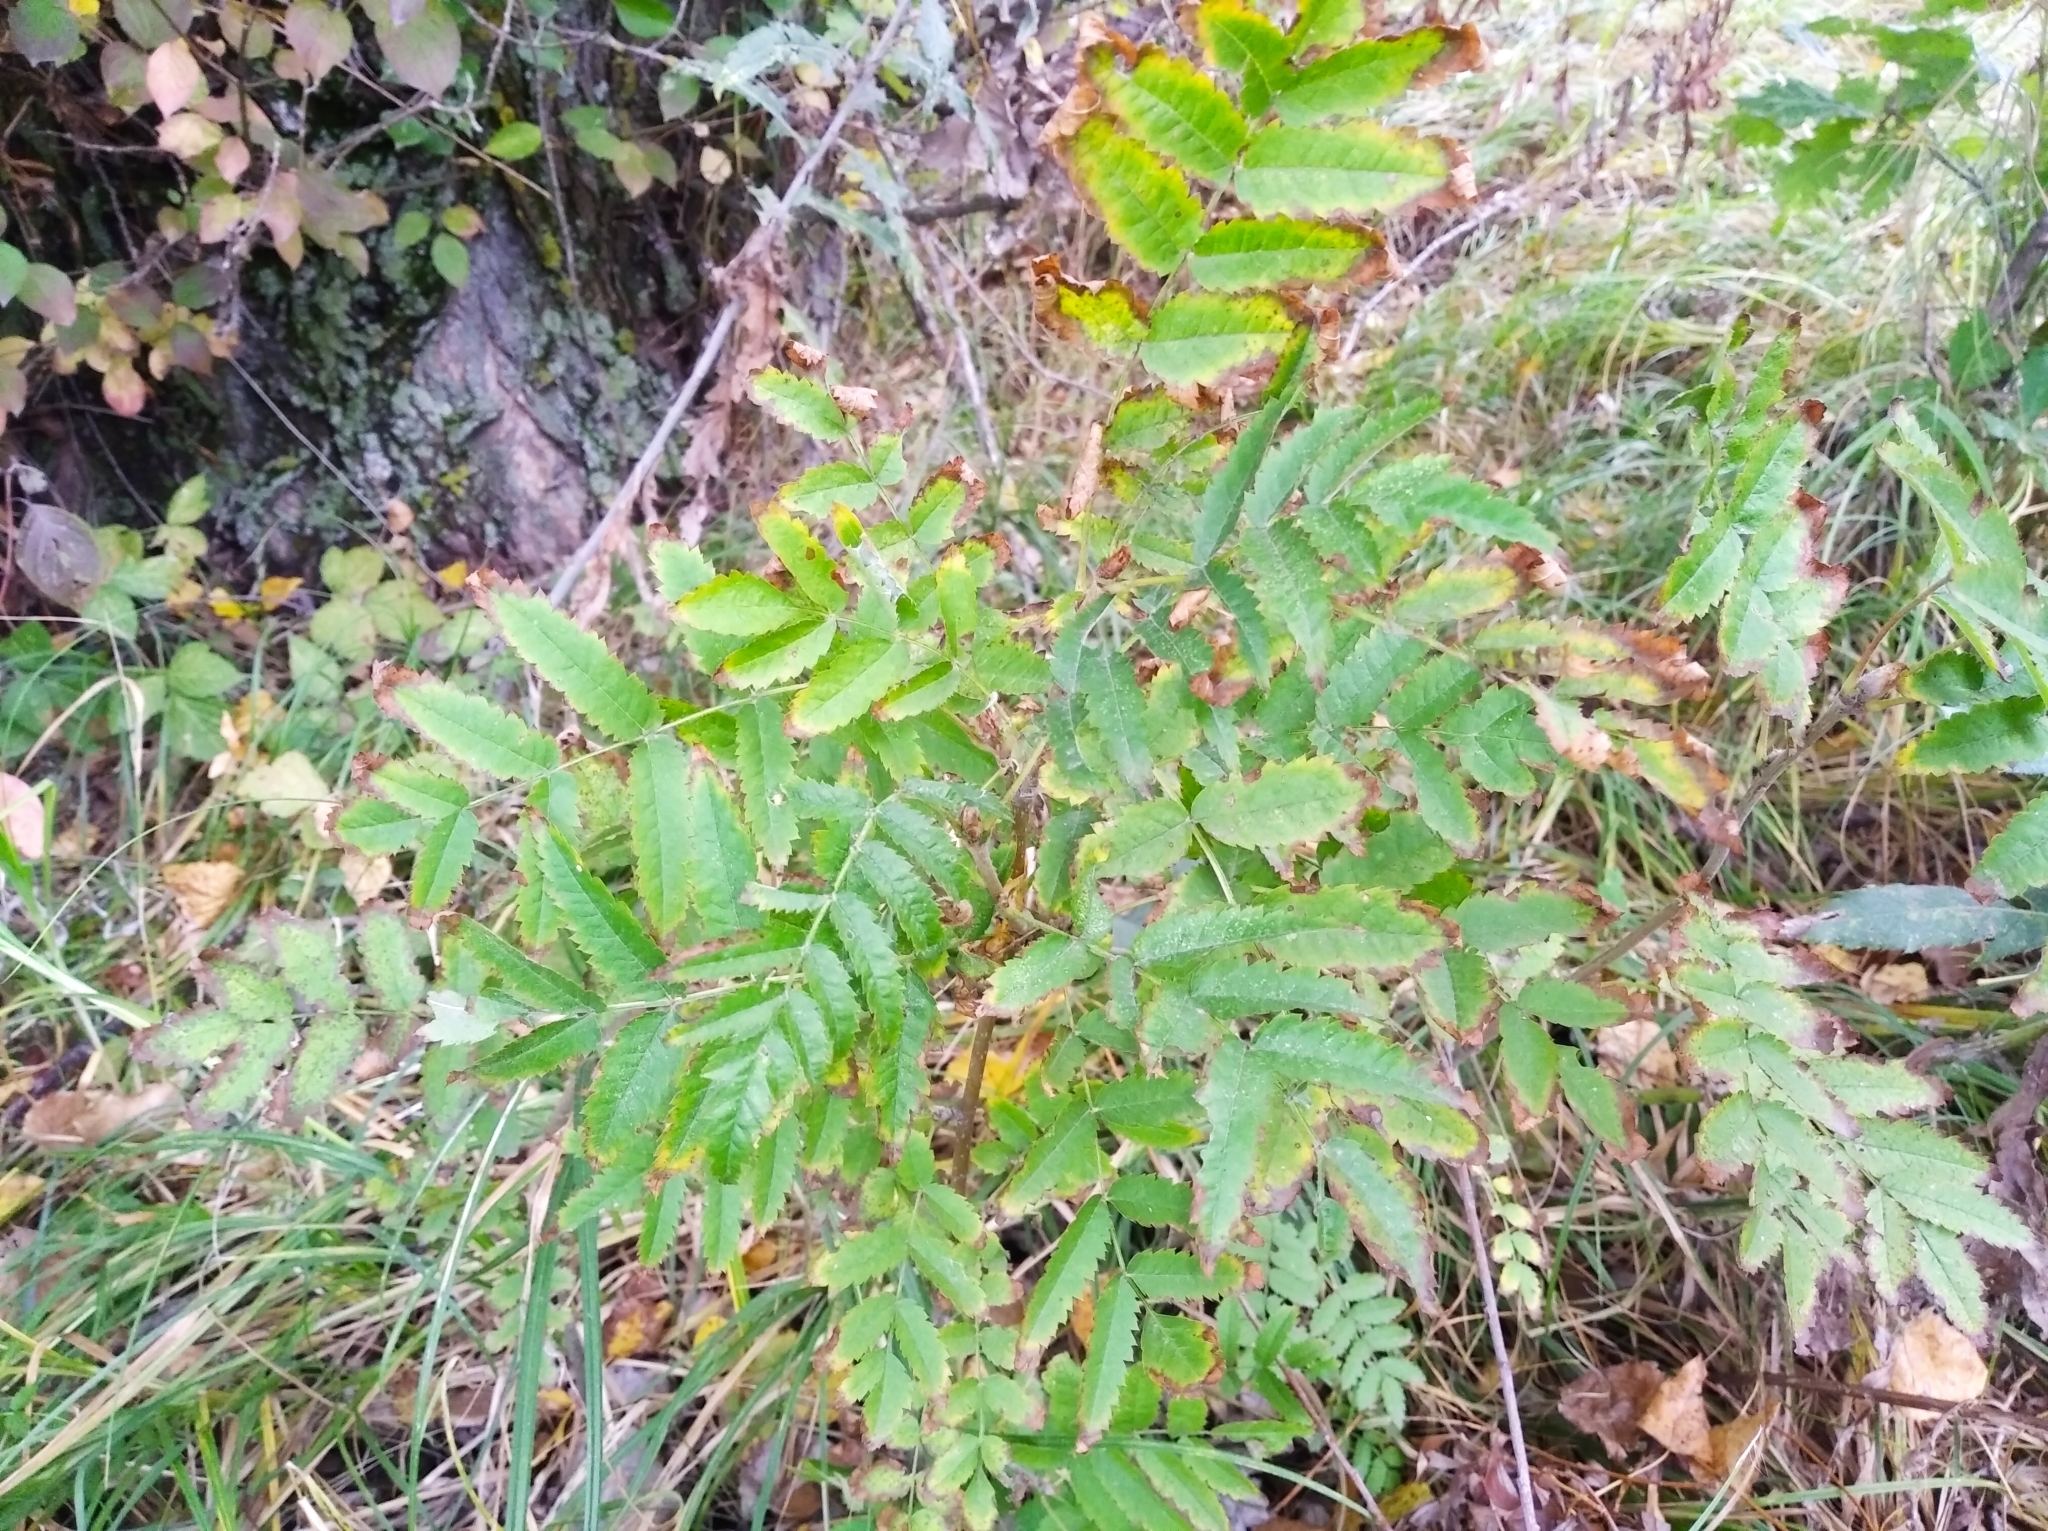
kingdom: Plantae
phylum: Tracheophyta
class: Magnoliopsida
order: Rosales
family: Rosaceae
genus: Sorbus
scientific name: Sorbus aucuparia
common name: Rowan
